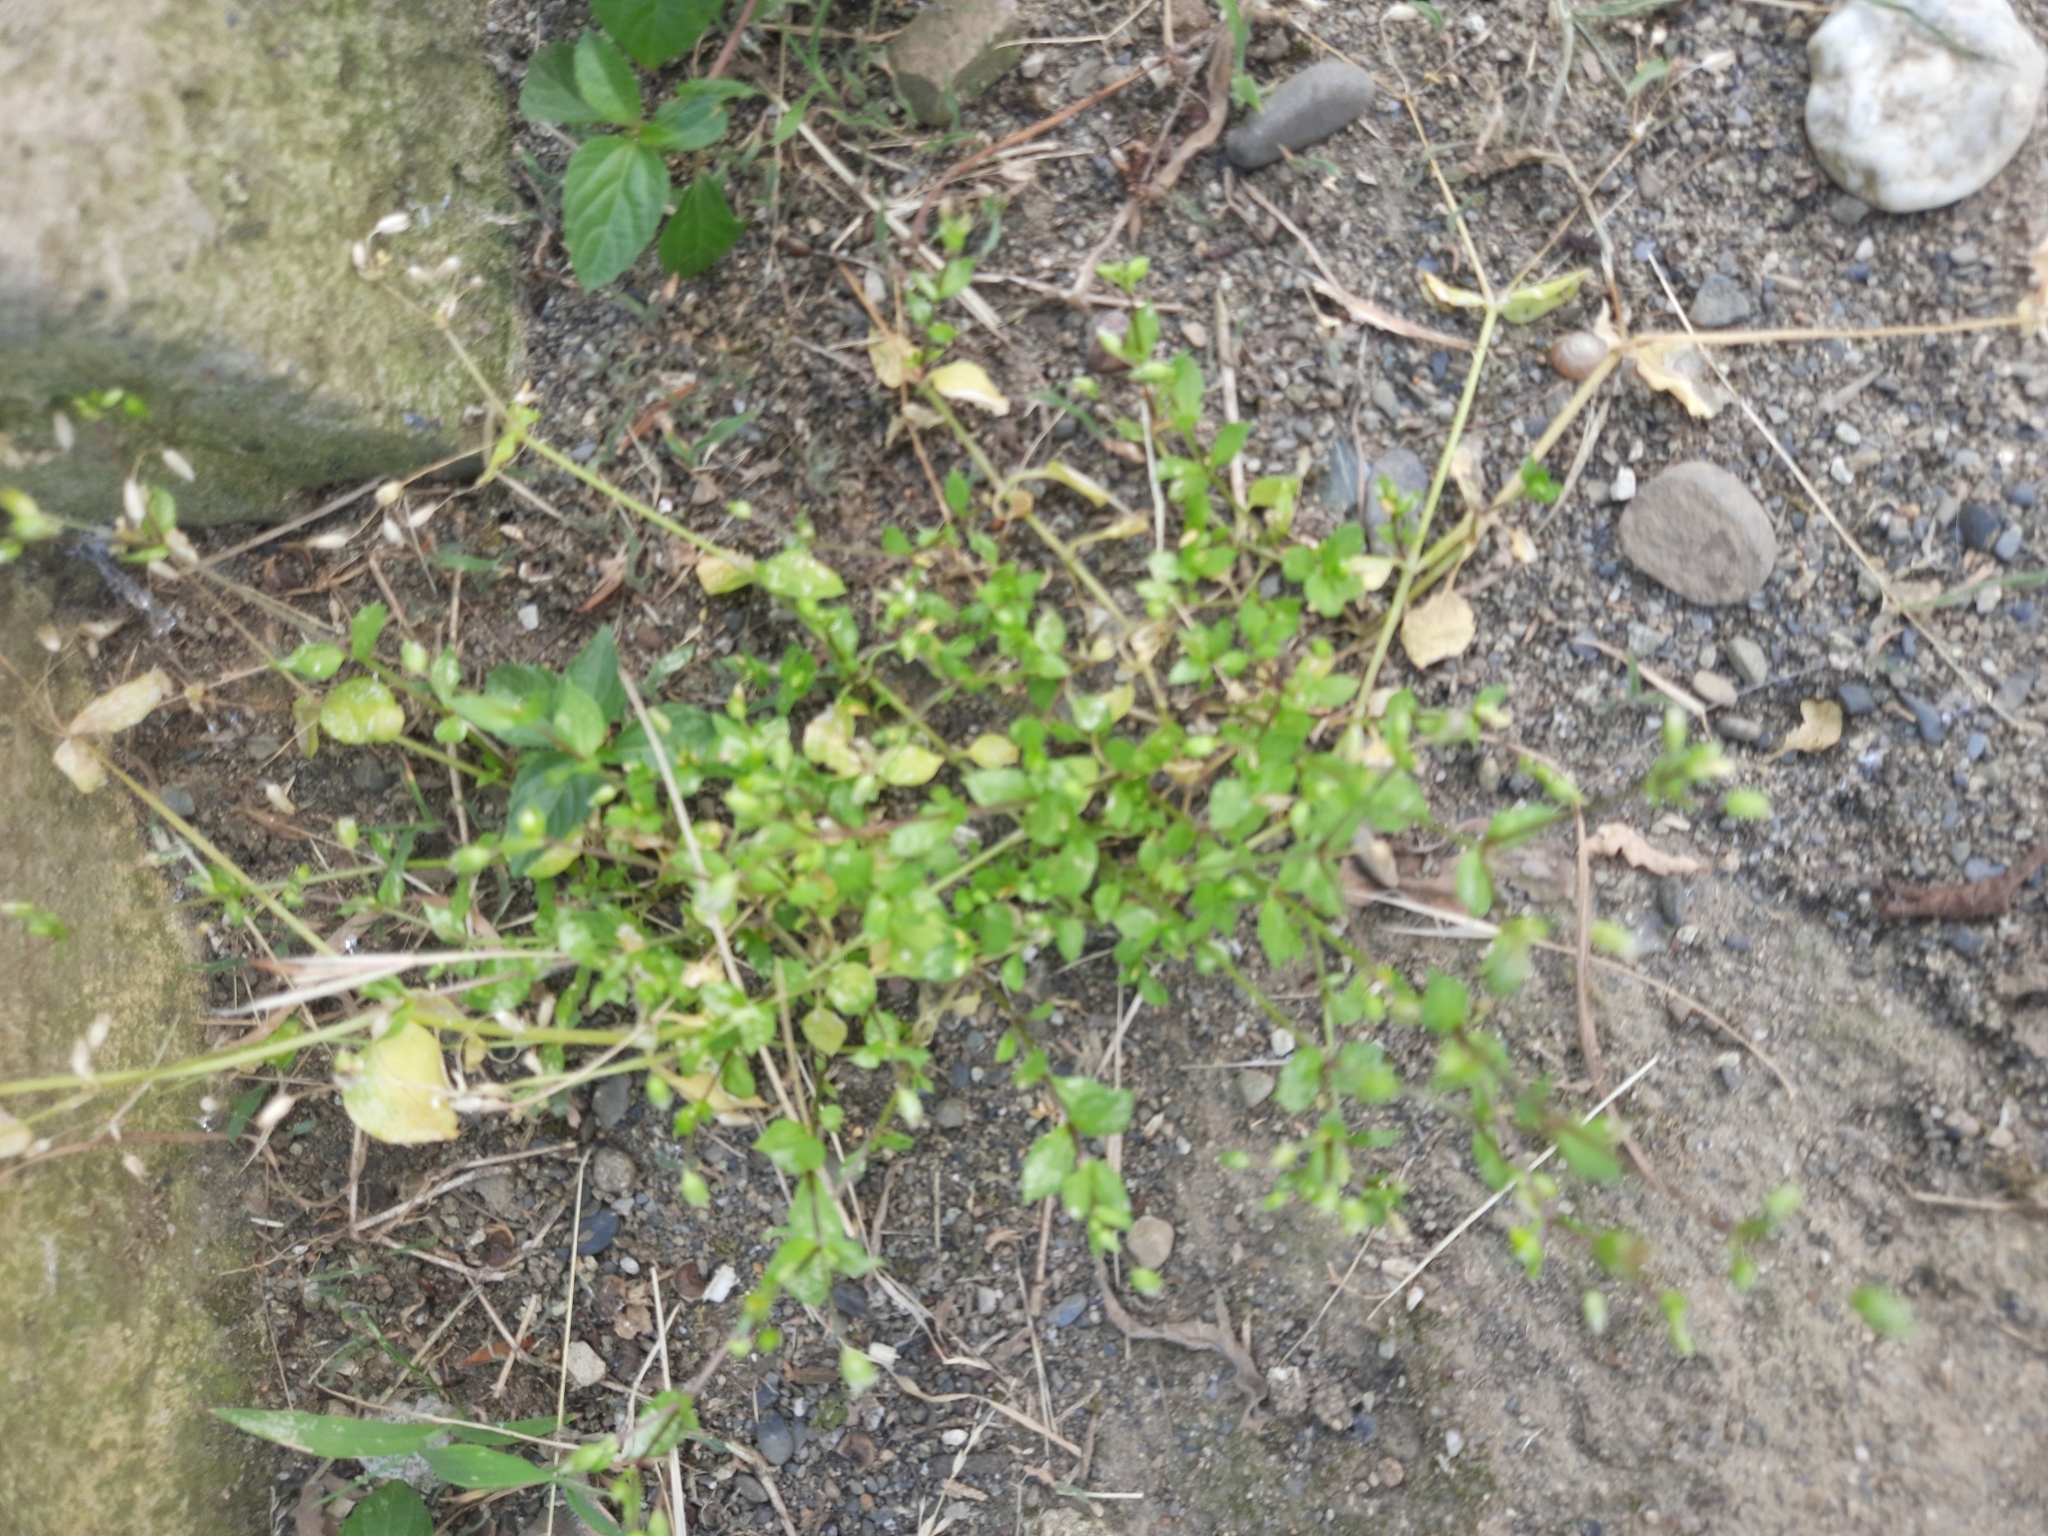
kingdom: Plantae
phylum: Tracheophyta
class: Magnoliopsida
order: Caryophyllales
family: Caryophyllaceae
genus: Stellaria
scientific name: Stellaria media
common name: Common chickweed
